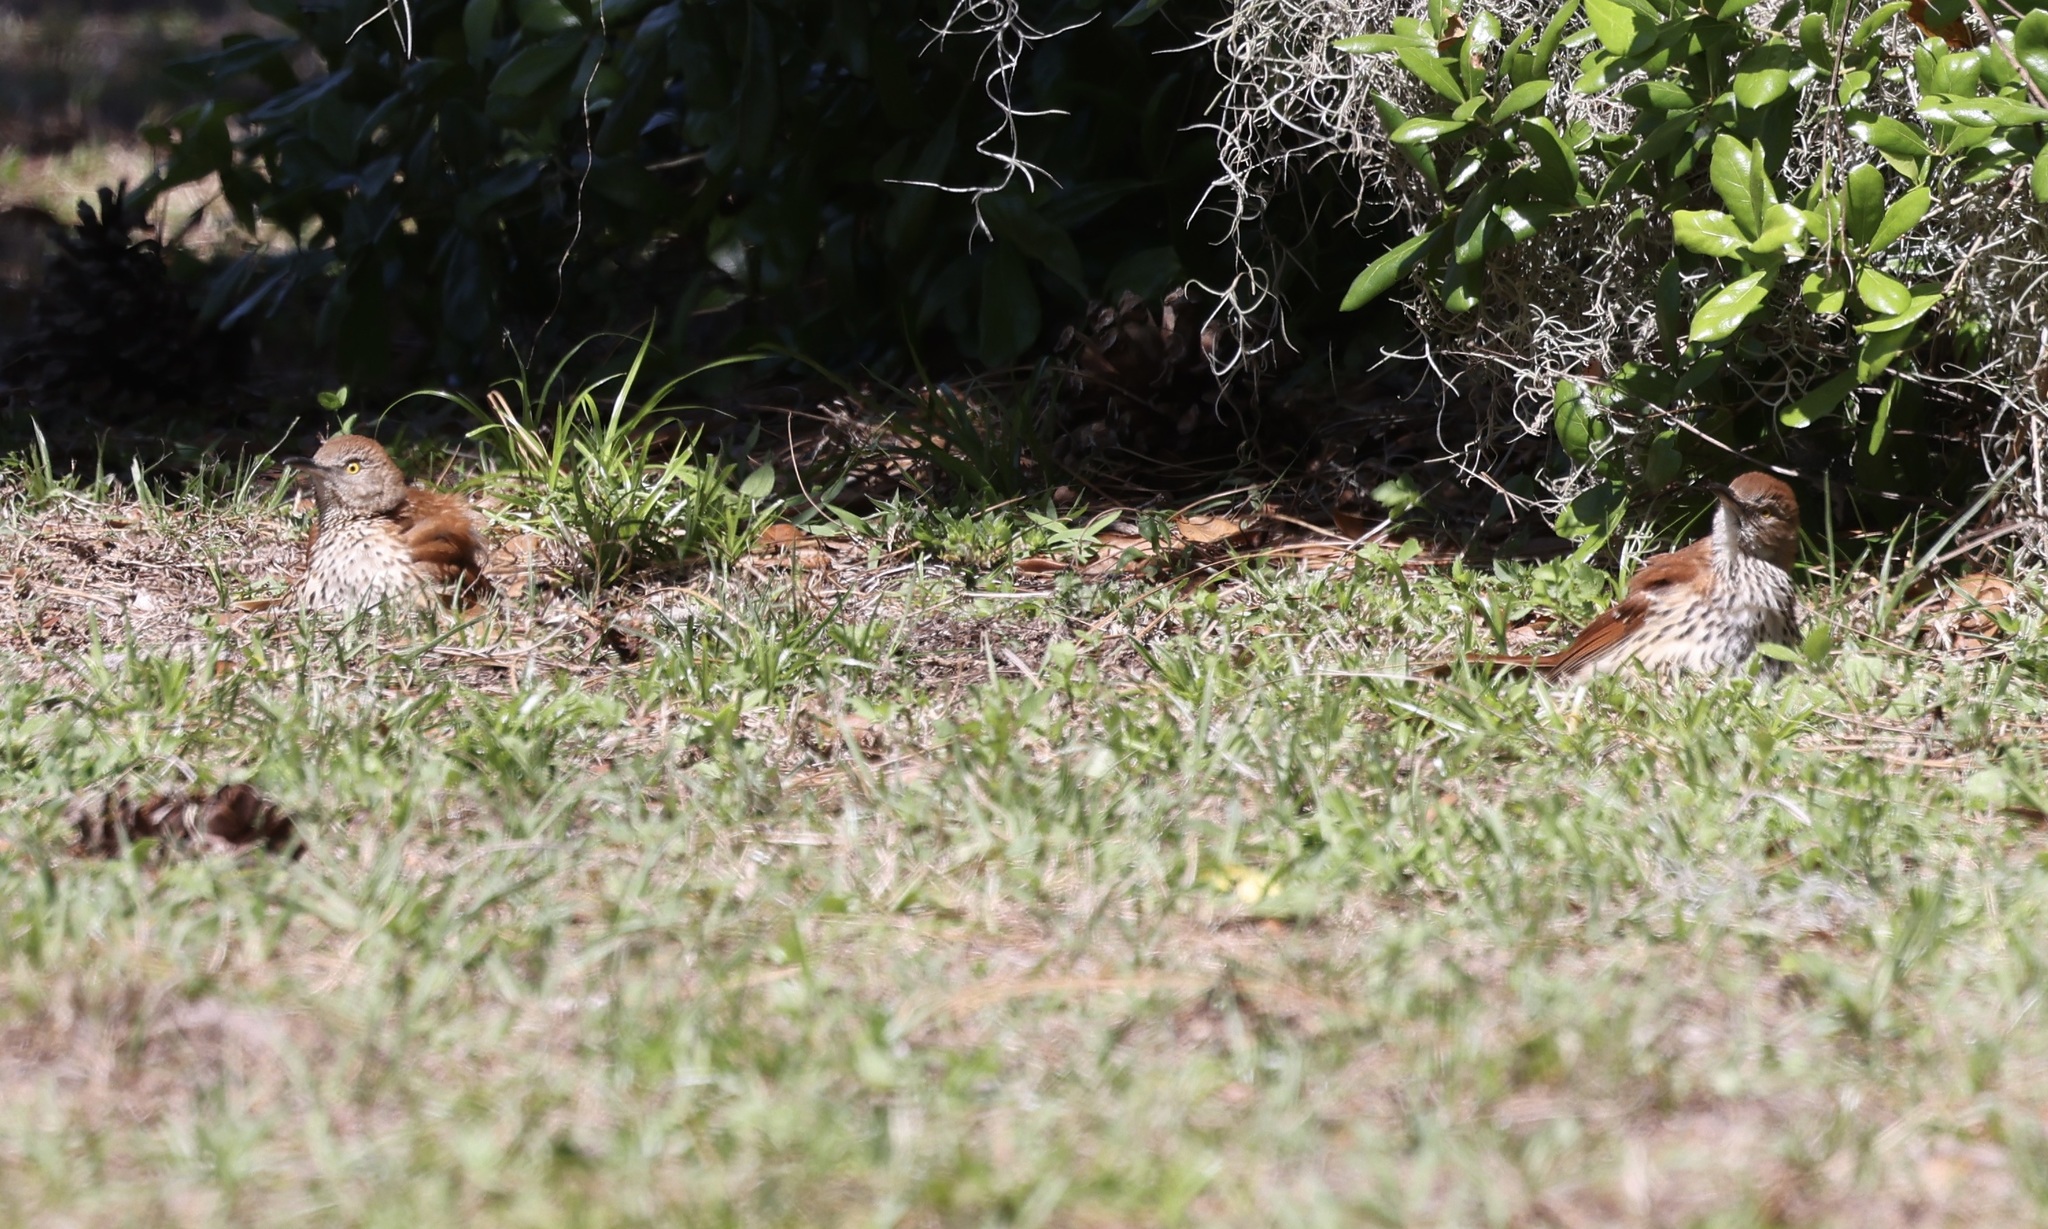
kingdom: Animalia
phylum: Chordata
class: Aves
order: Passeriformes
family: Mimidae
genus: Toxostoma
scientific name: Toxostoma rufum
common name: Brown thrasher
